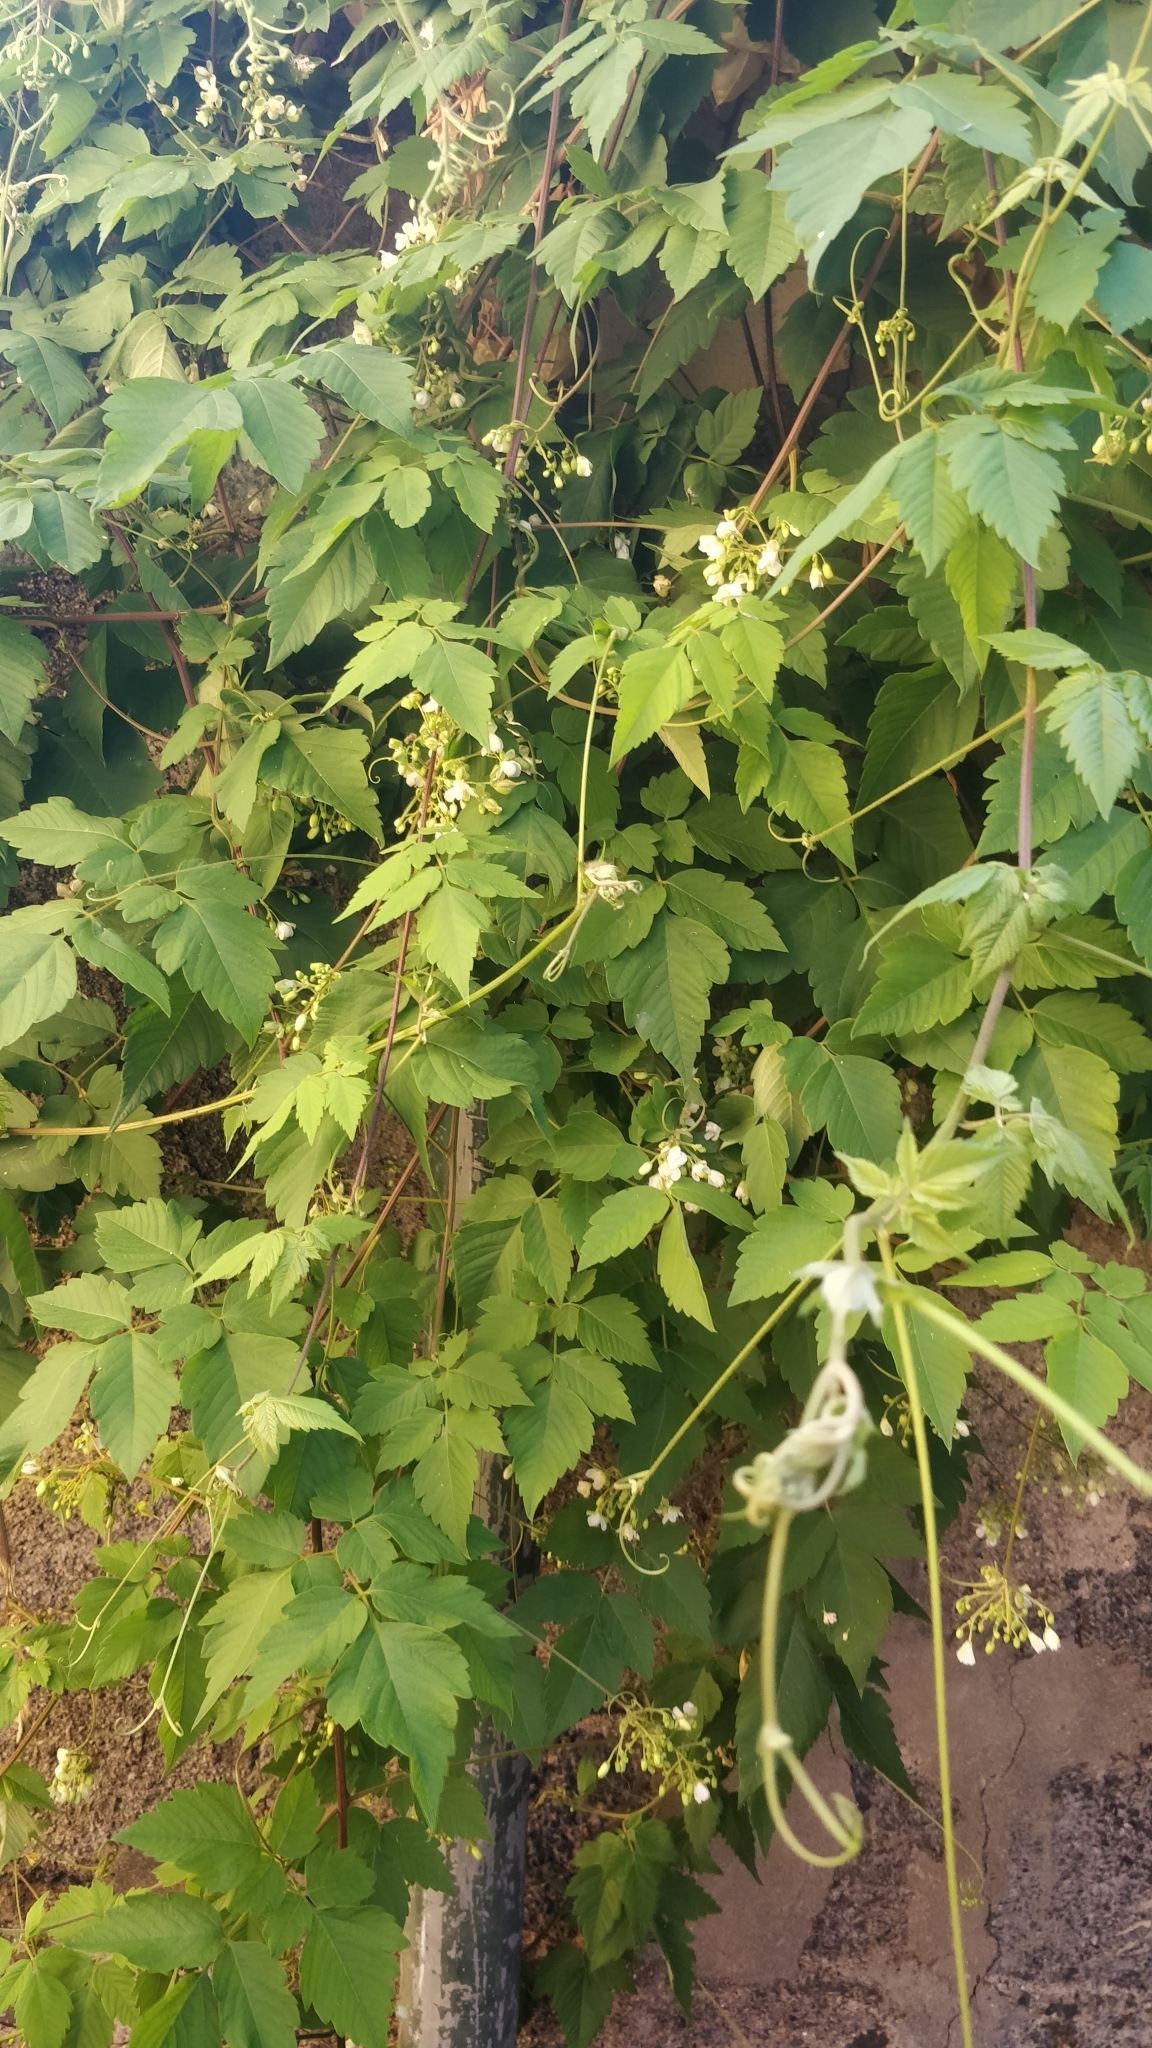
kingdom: Plantae
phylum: Tracheophyta
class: Magnoliopsida
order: Sapindales
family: Sapindaceae
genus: Cardiospermum
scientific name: Cardiospermum grandiflorum
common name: Balloon vine
